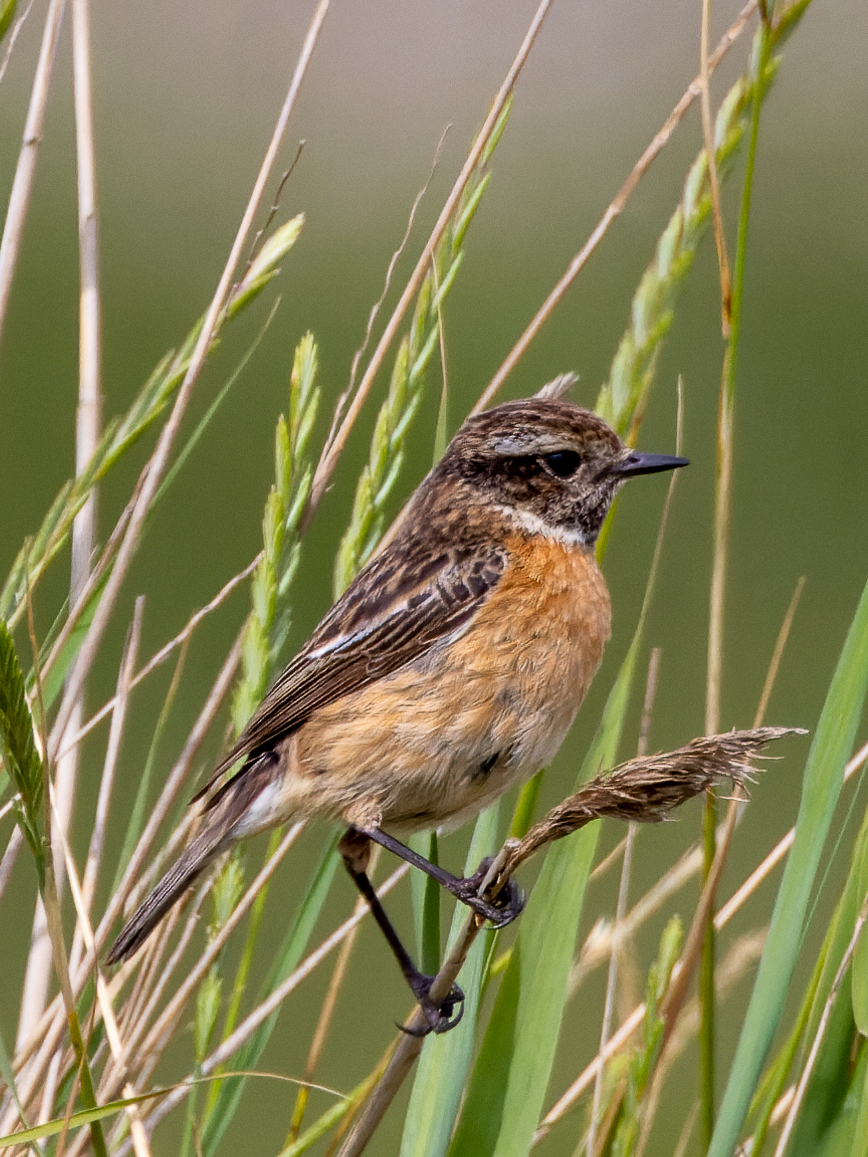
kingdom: Animalia
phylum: Chordata
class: Aves
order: Passeriformes
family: Muscicapidae
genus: Saxicola
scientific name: Saxicola rubicola
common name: European stonechat
